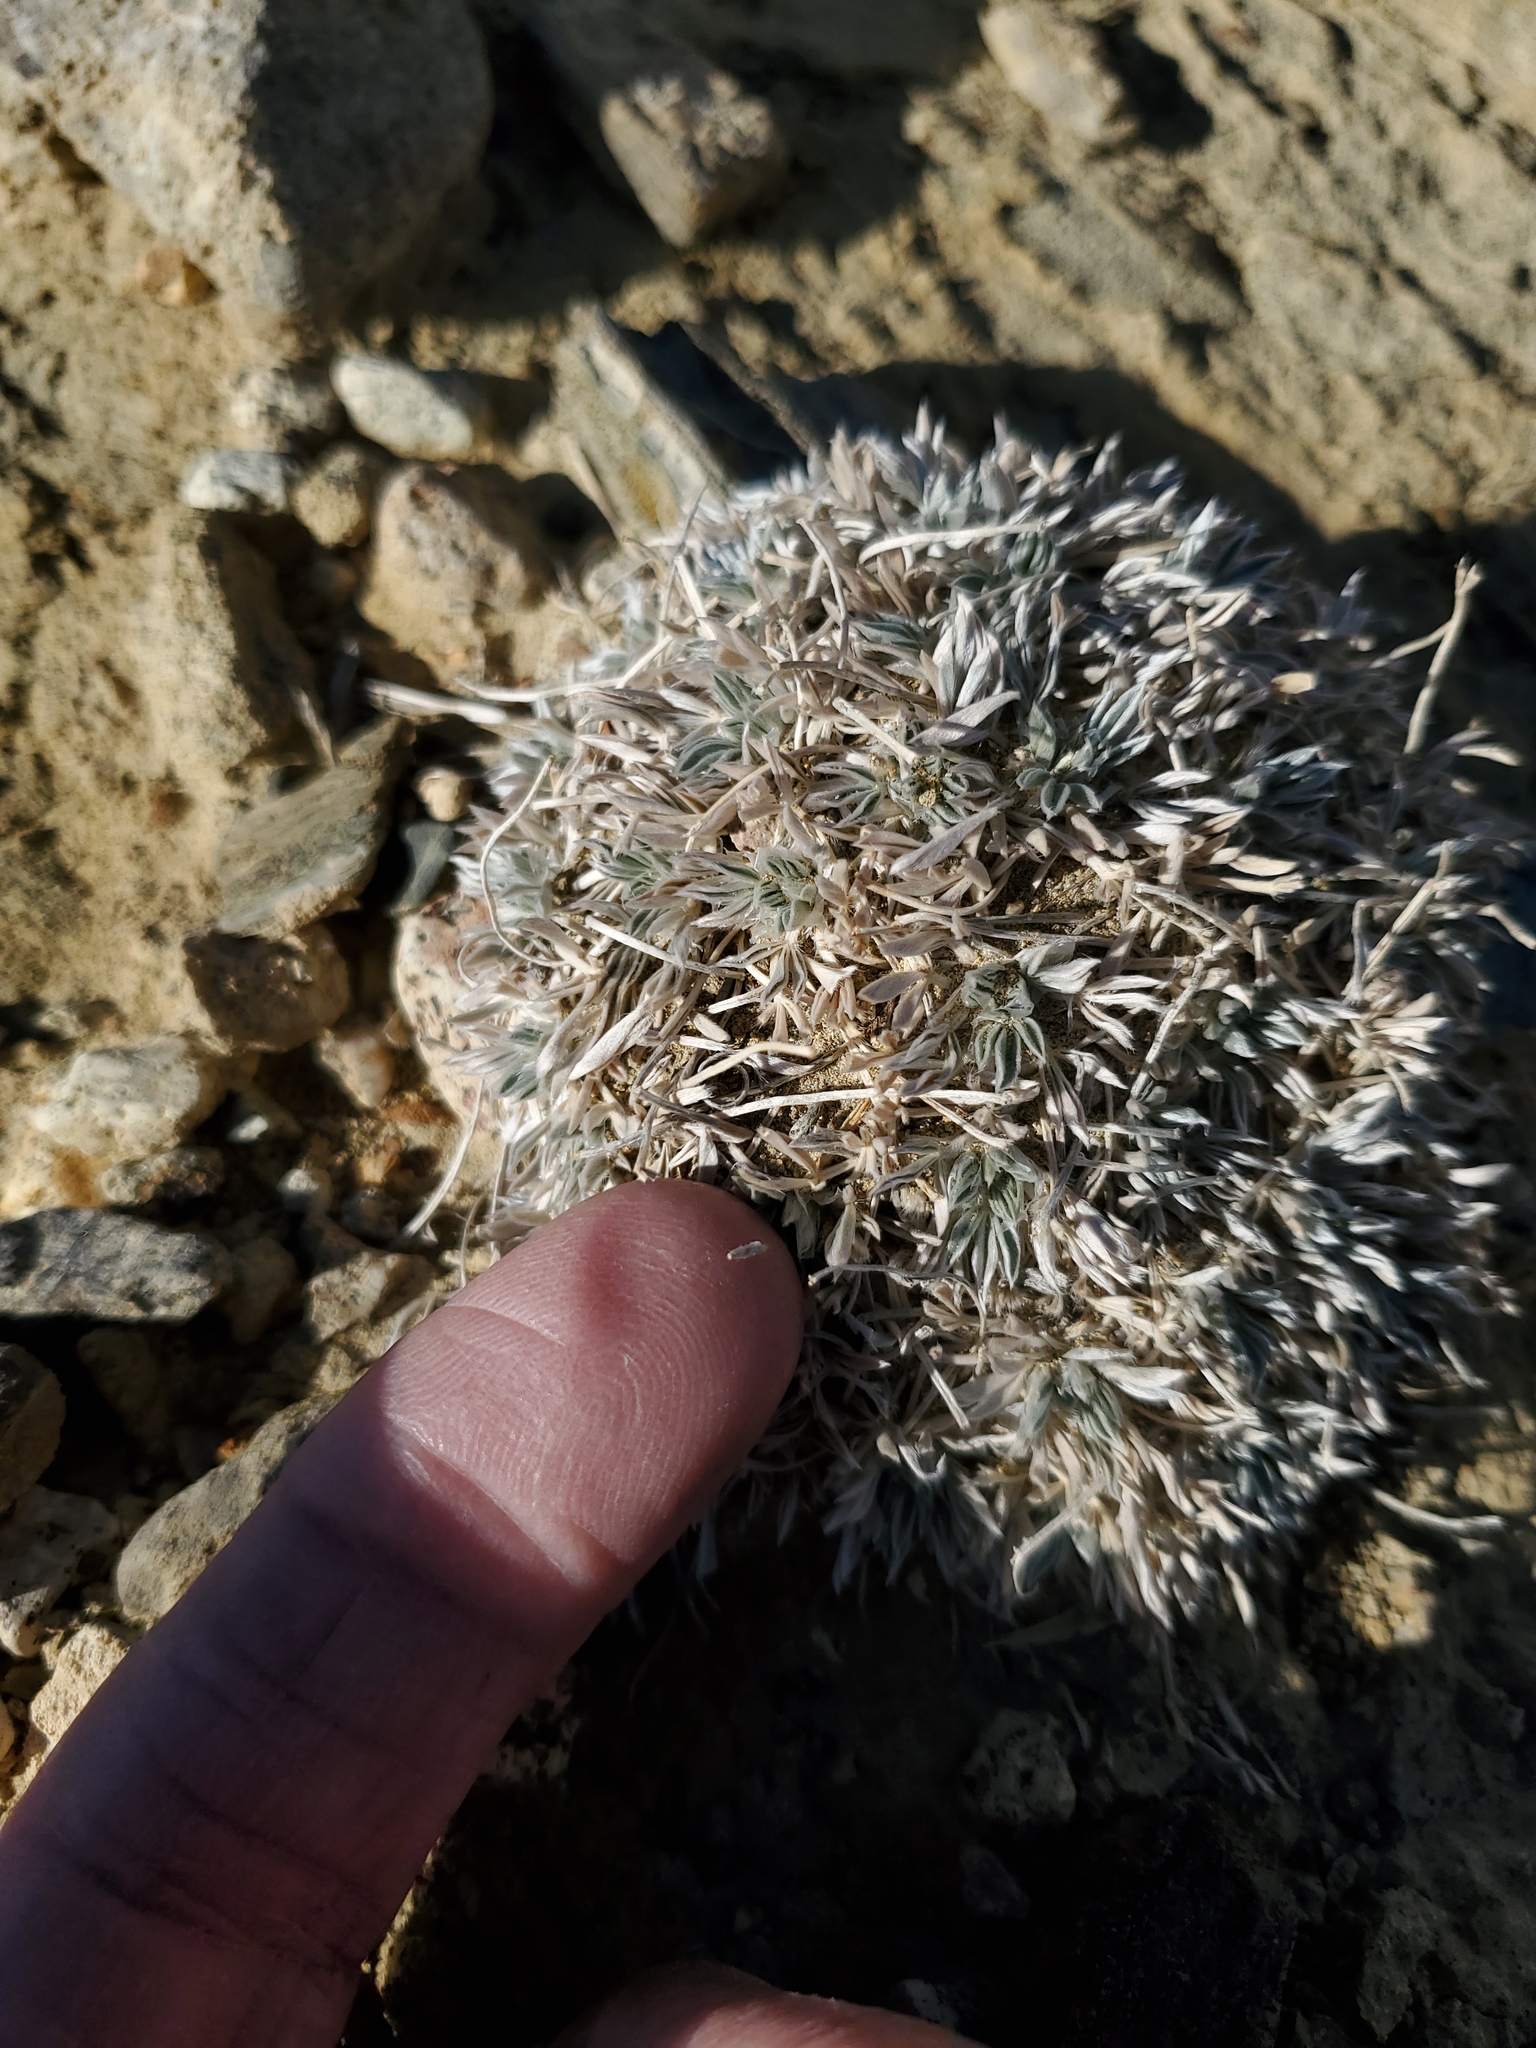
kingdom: Plantae
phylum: Tracheophyta
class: Magnoliopsida
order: Fabales
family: Fabaceae
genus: Astragalus
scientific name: Astragalus gilviflorus
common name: Cushion milk-vetch
